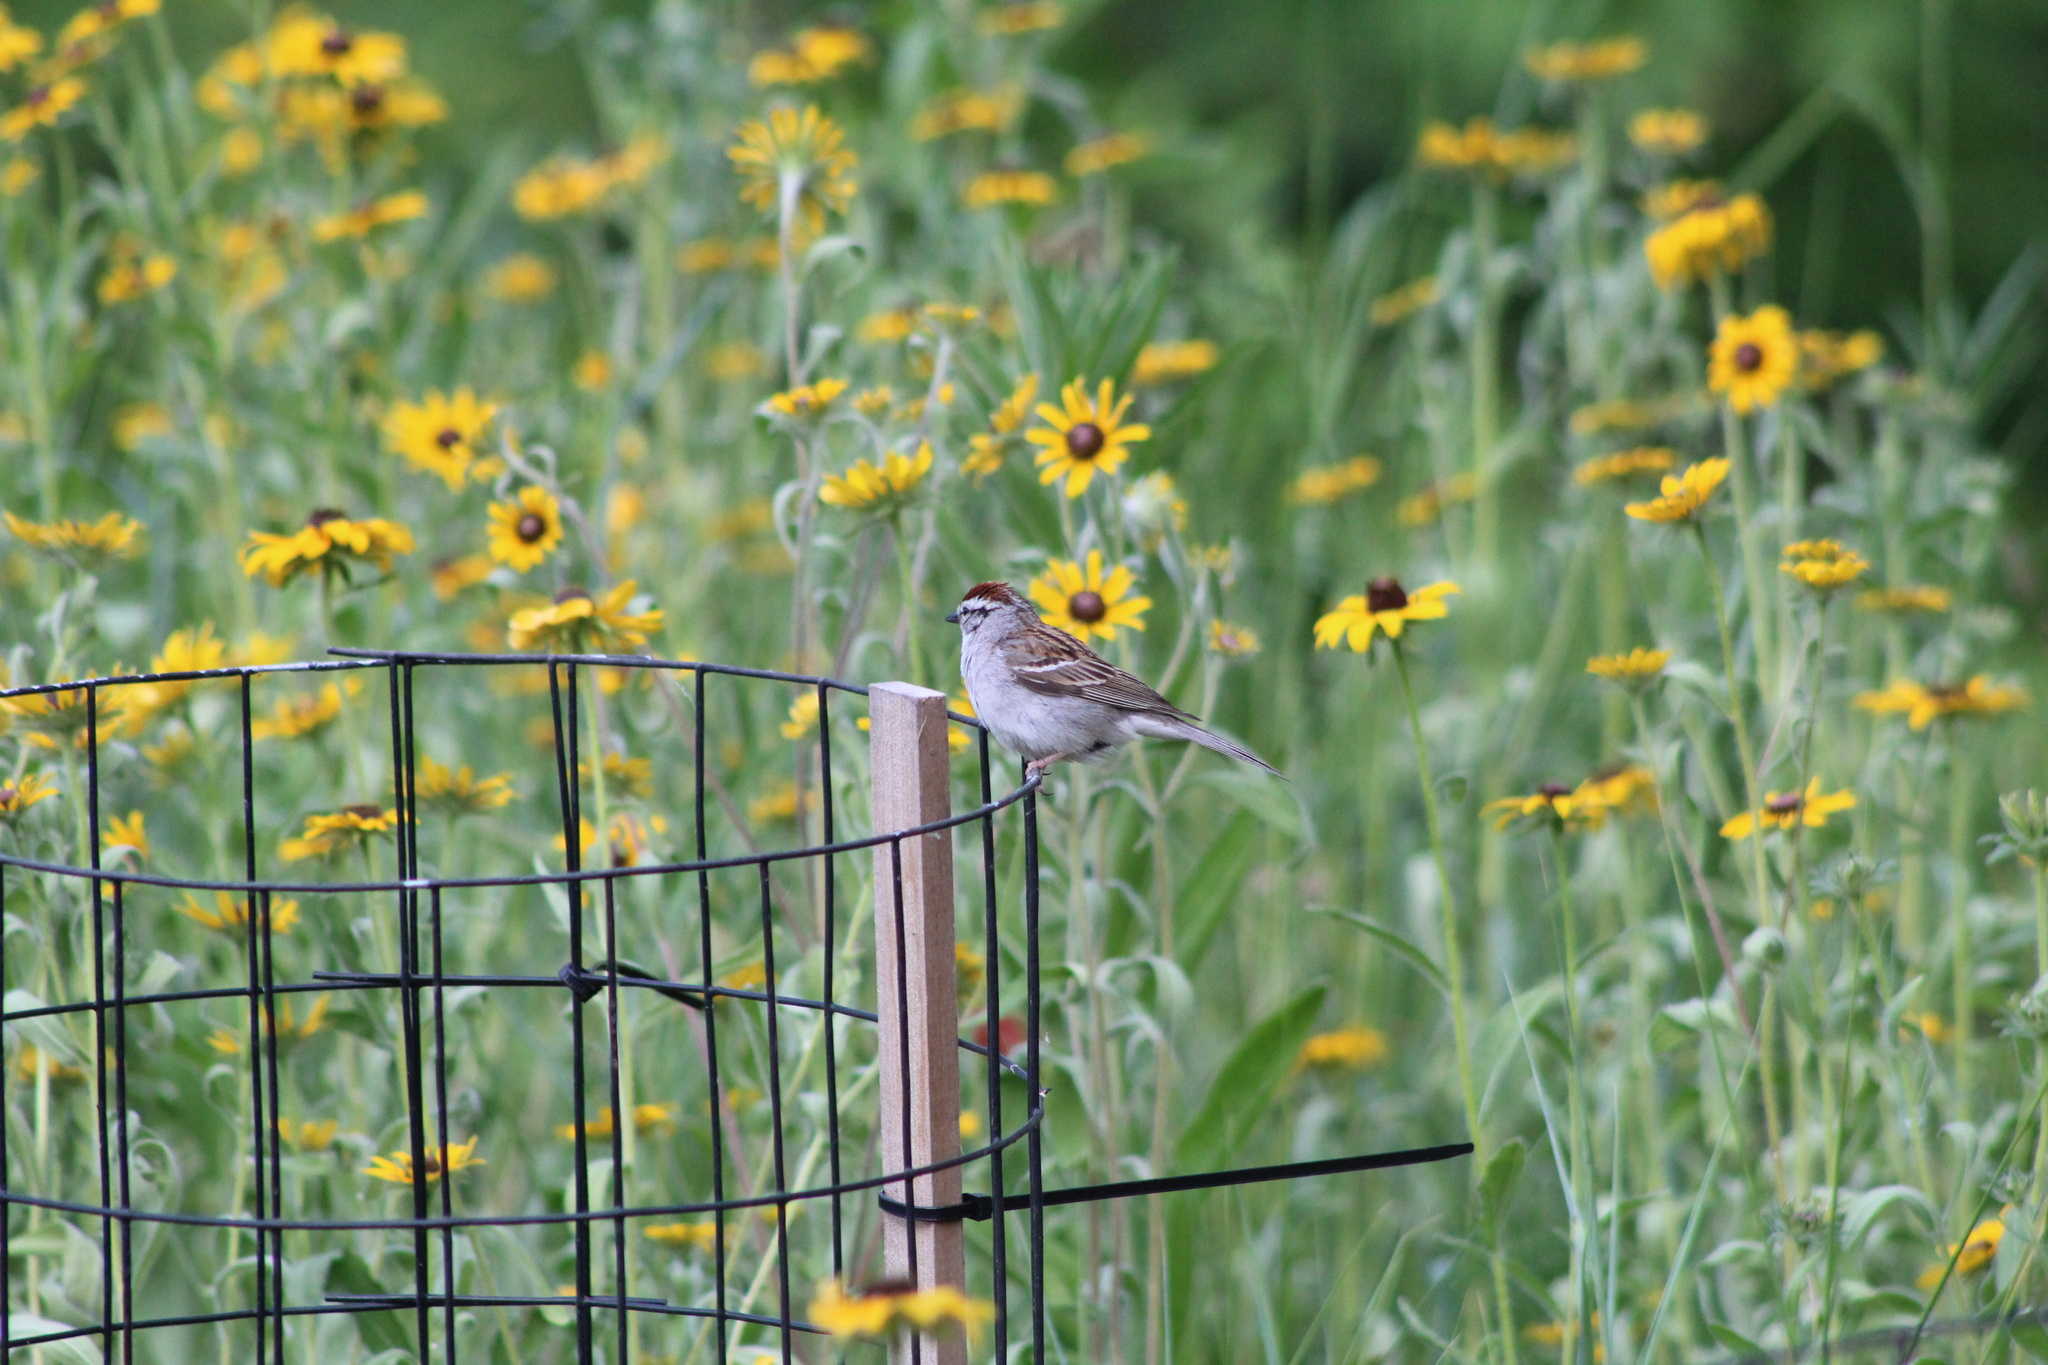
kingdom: Animalia
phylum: Chordata
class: Aves
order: Passeriformes
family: Passerellidae
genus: Spizella
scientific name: Spizella passerina
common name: Chipping sparrow
